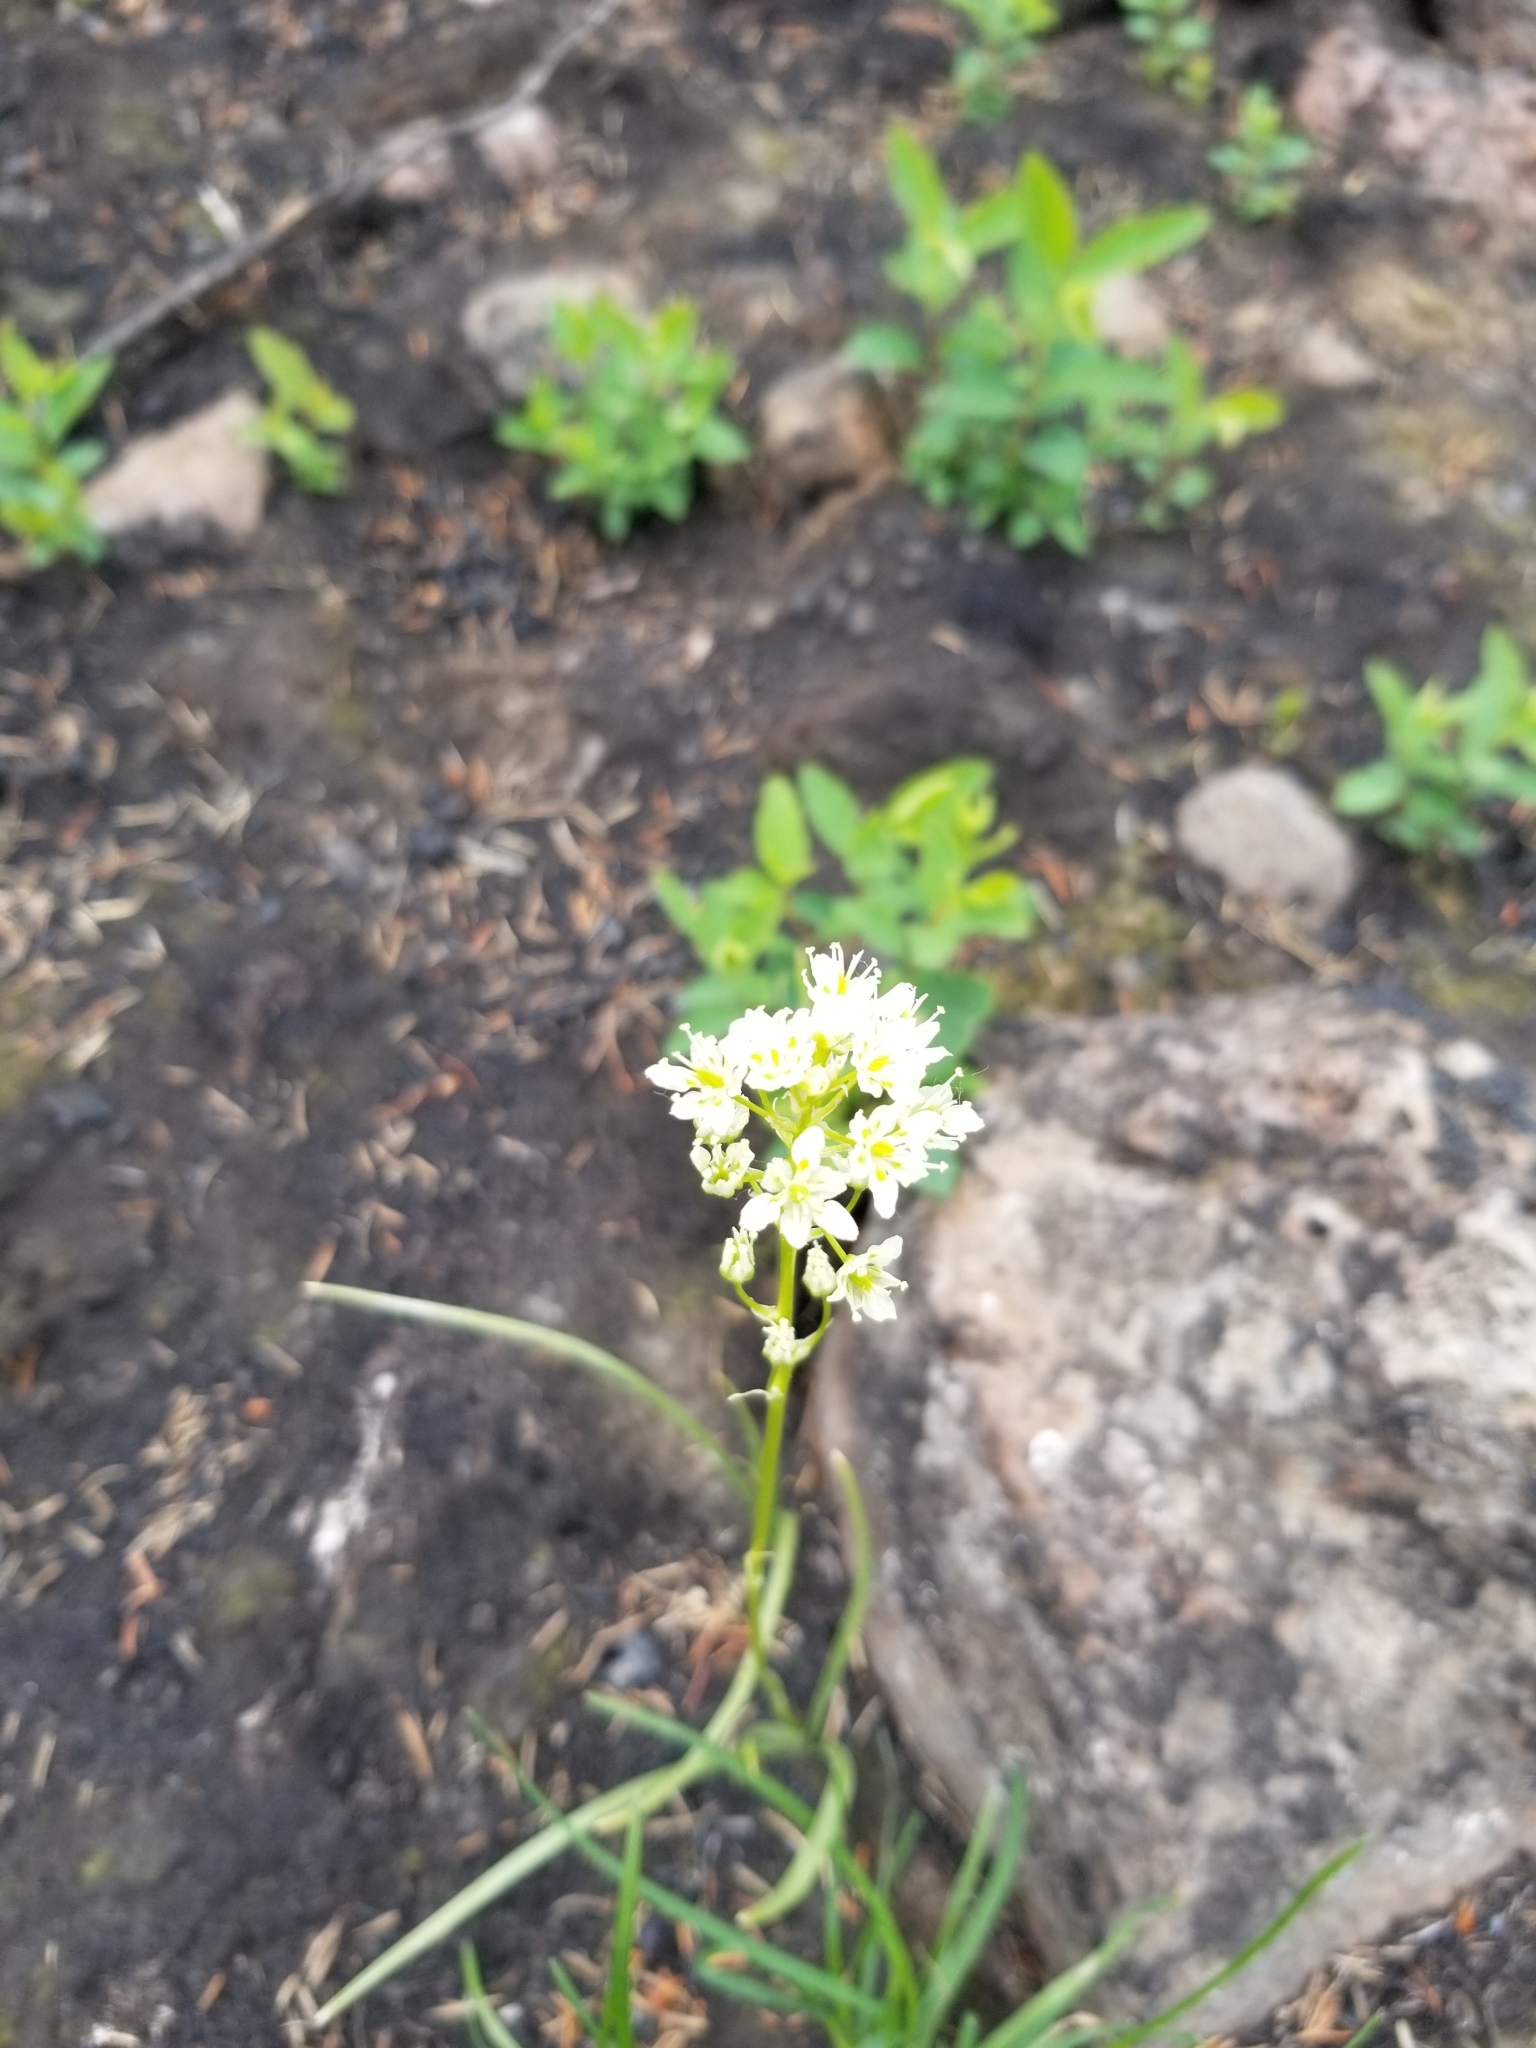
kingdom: Plantae
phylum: Tracheophyta
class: Liliopsida
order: Liliales
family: Melanthiaceae
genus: Toxicoscordion
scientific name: Toxicoscordion venenosum
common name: Meadow death camas
